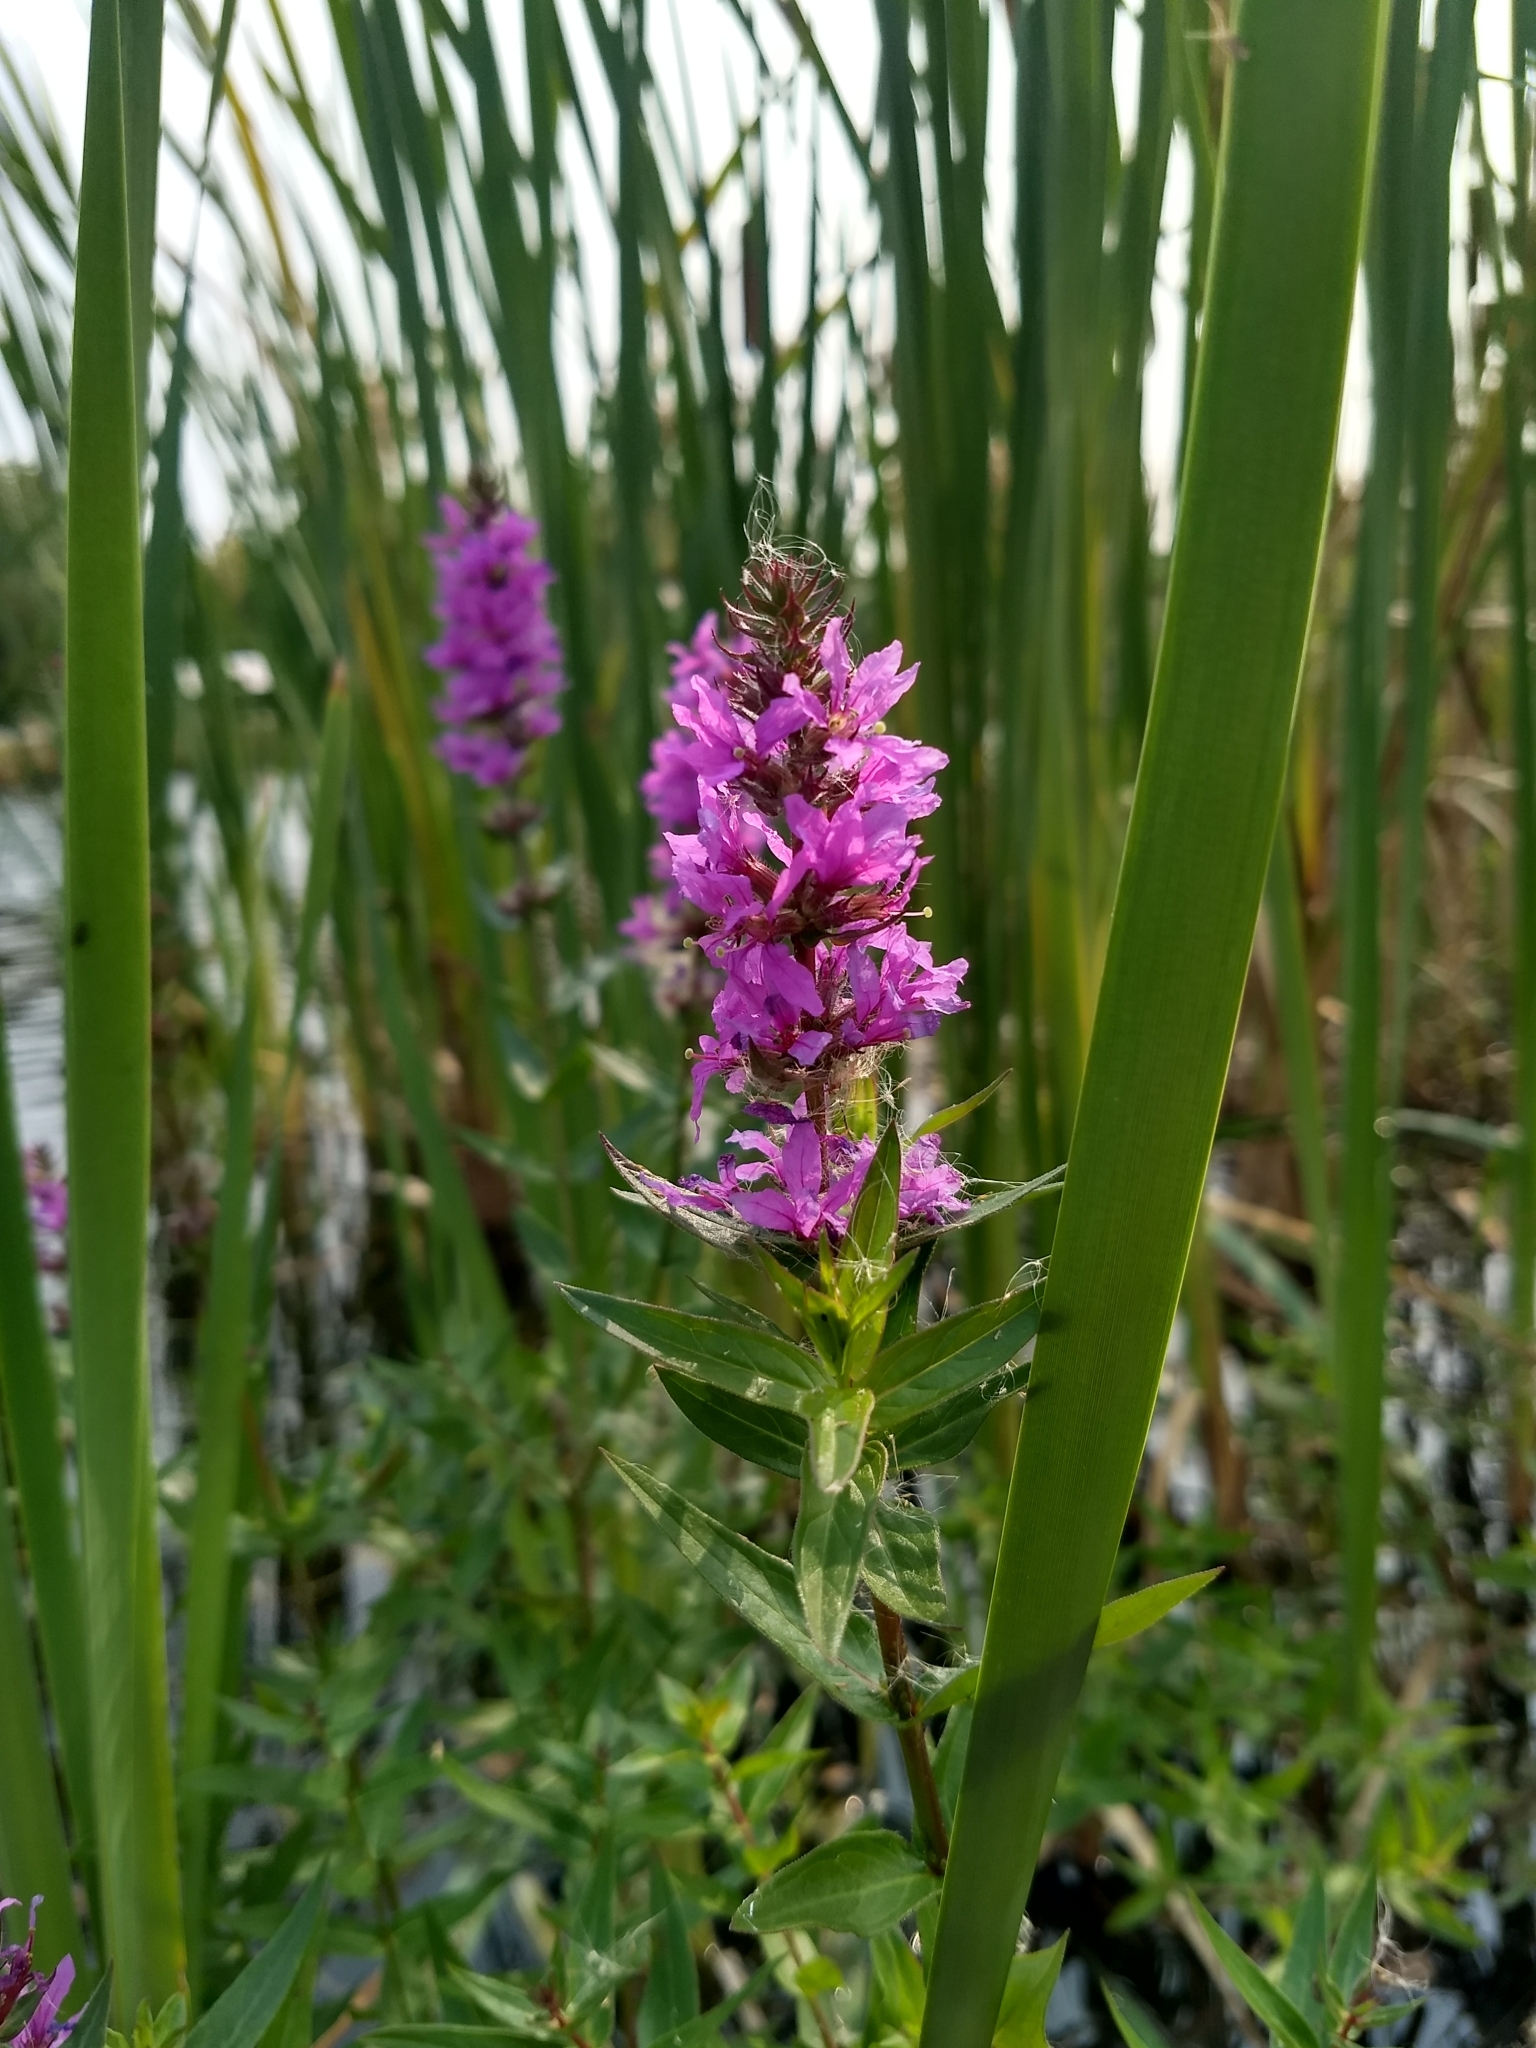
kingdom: Plantae
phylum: Tracheophyta
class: Magnoliopsida
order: Myrtales
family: Lythraceae
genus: Lythrum
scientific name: Lythrum salicaria
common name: Purple loosestrife
